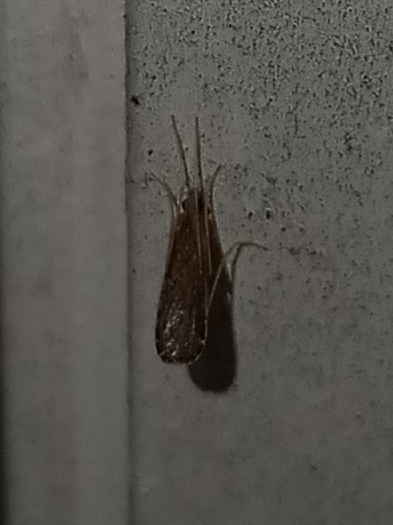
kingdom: Animalia
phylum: Arthropoda
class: Insecta
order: Diptera
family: Limoniidae
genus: Erioptera
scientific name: Erioptera tantilla
